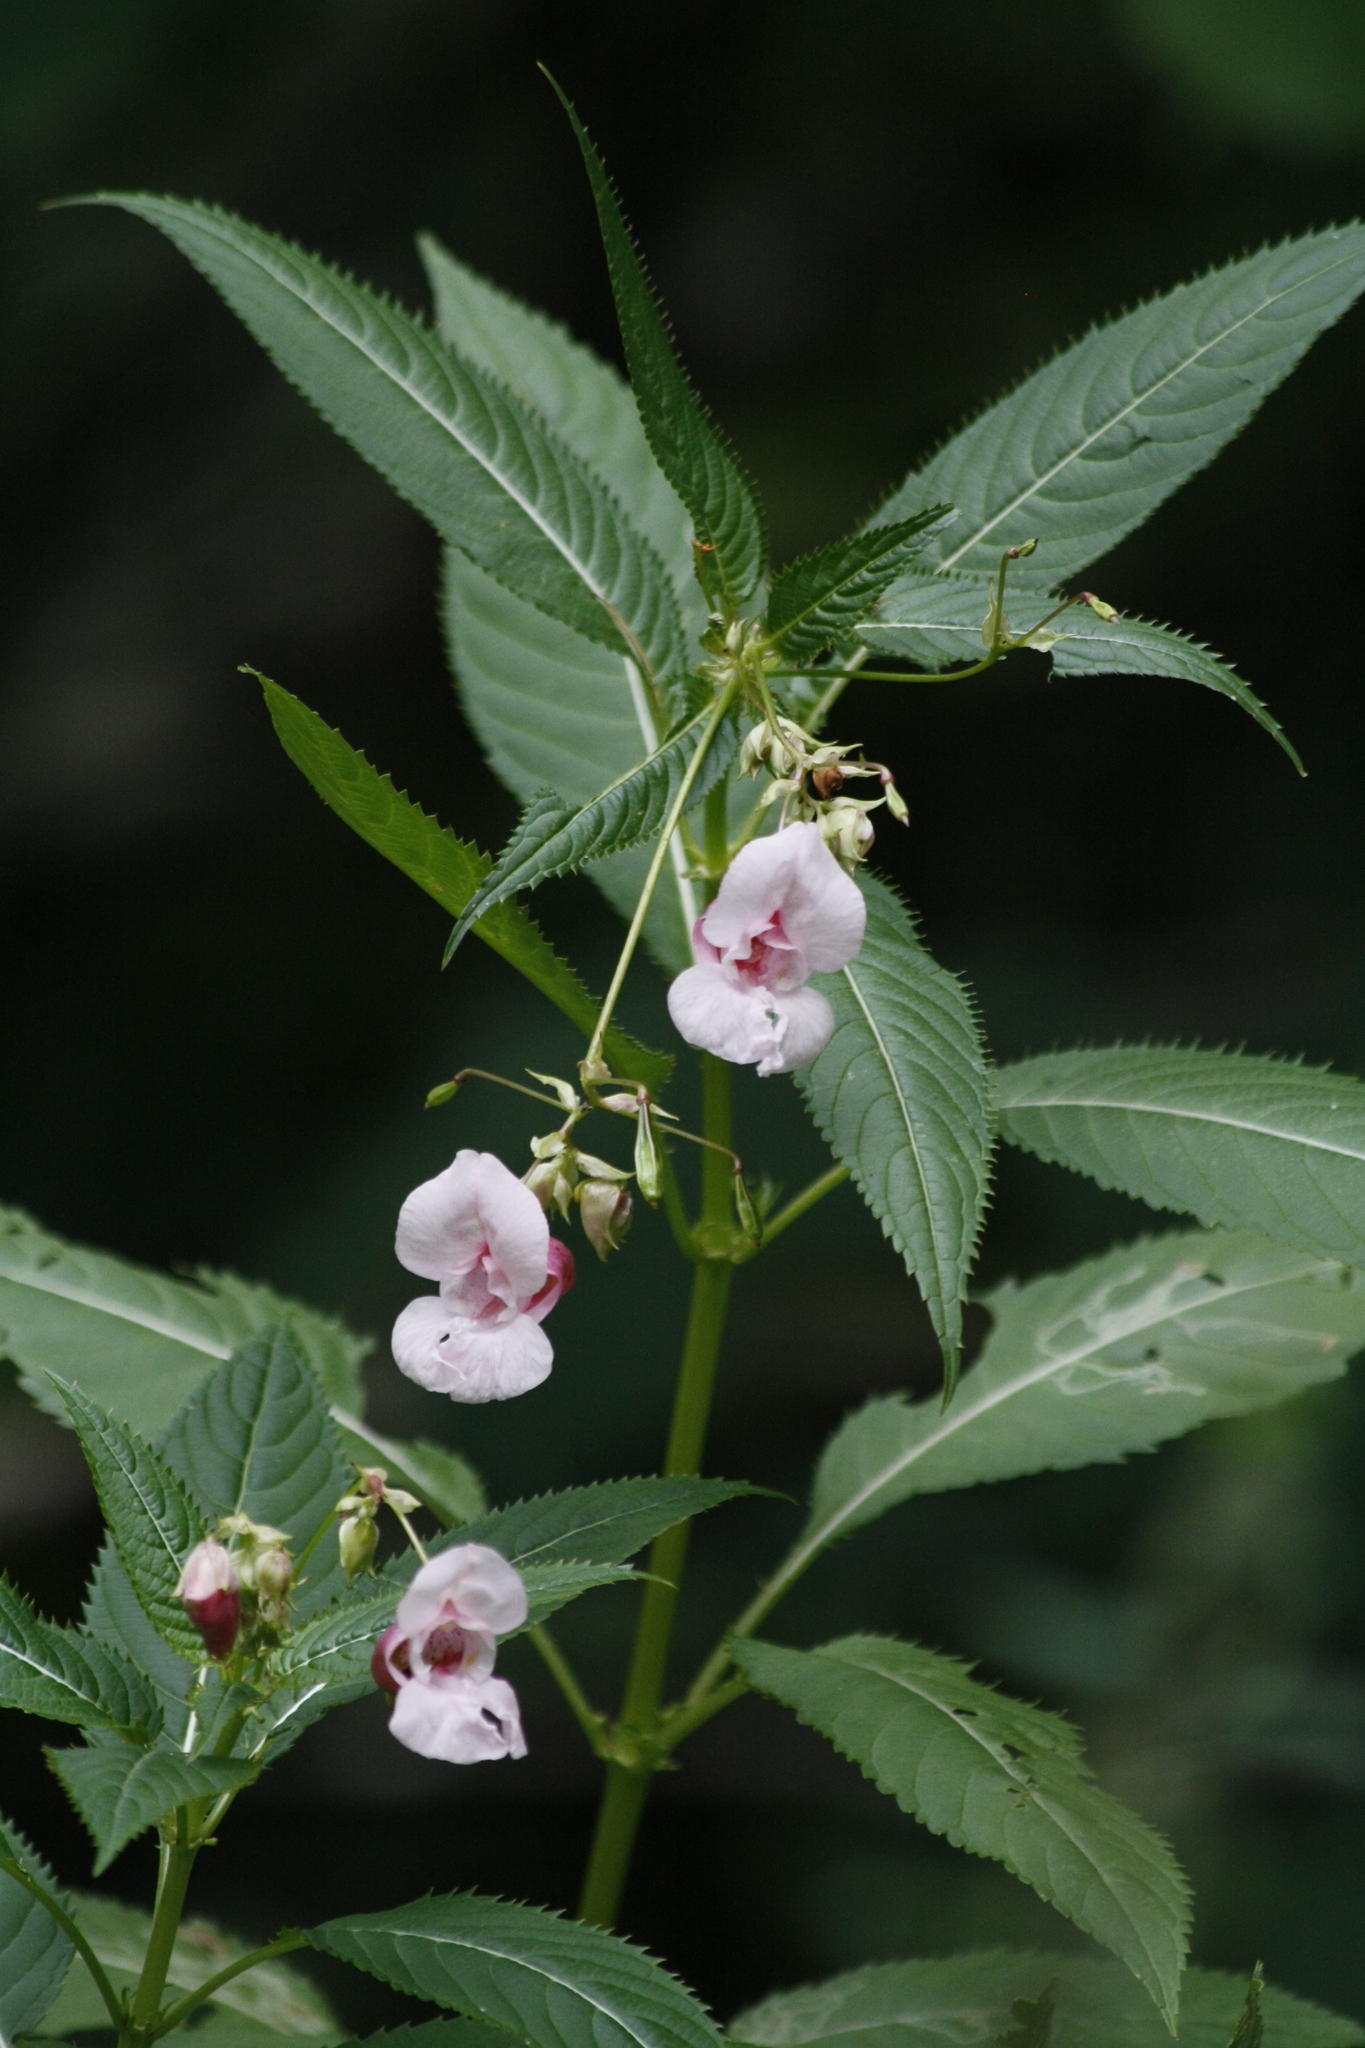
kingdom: Plantae
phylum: Tracheophyta
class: Magnoliopsida
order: Ericales
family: Balsaminaceae
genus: Impatiens
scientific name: Impatiens glandulifera
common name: Himalayan balsam
